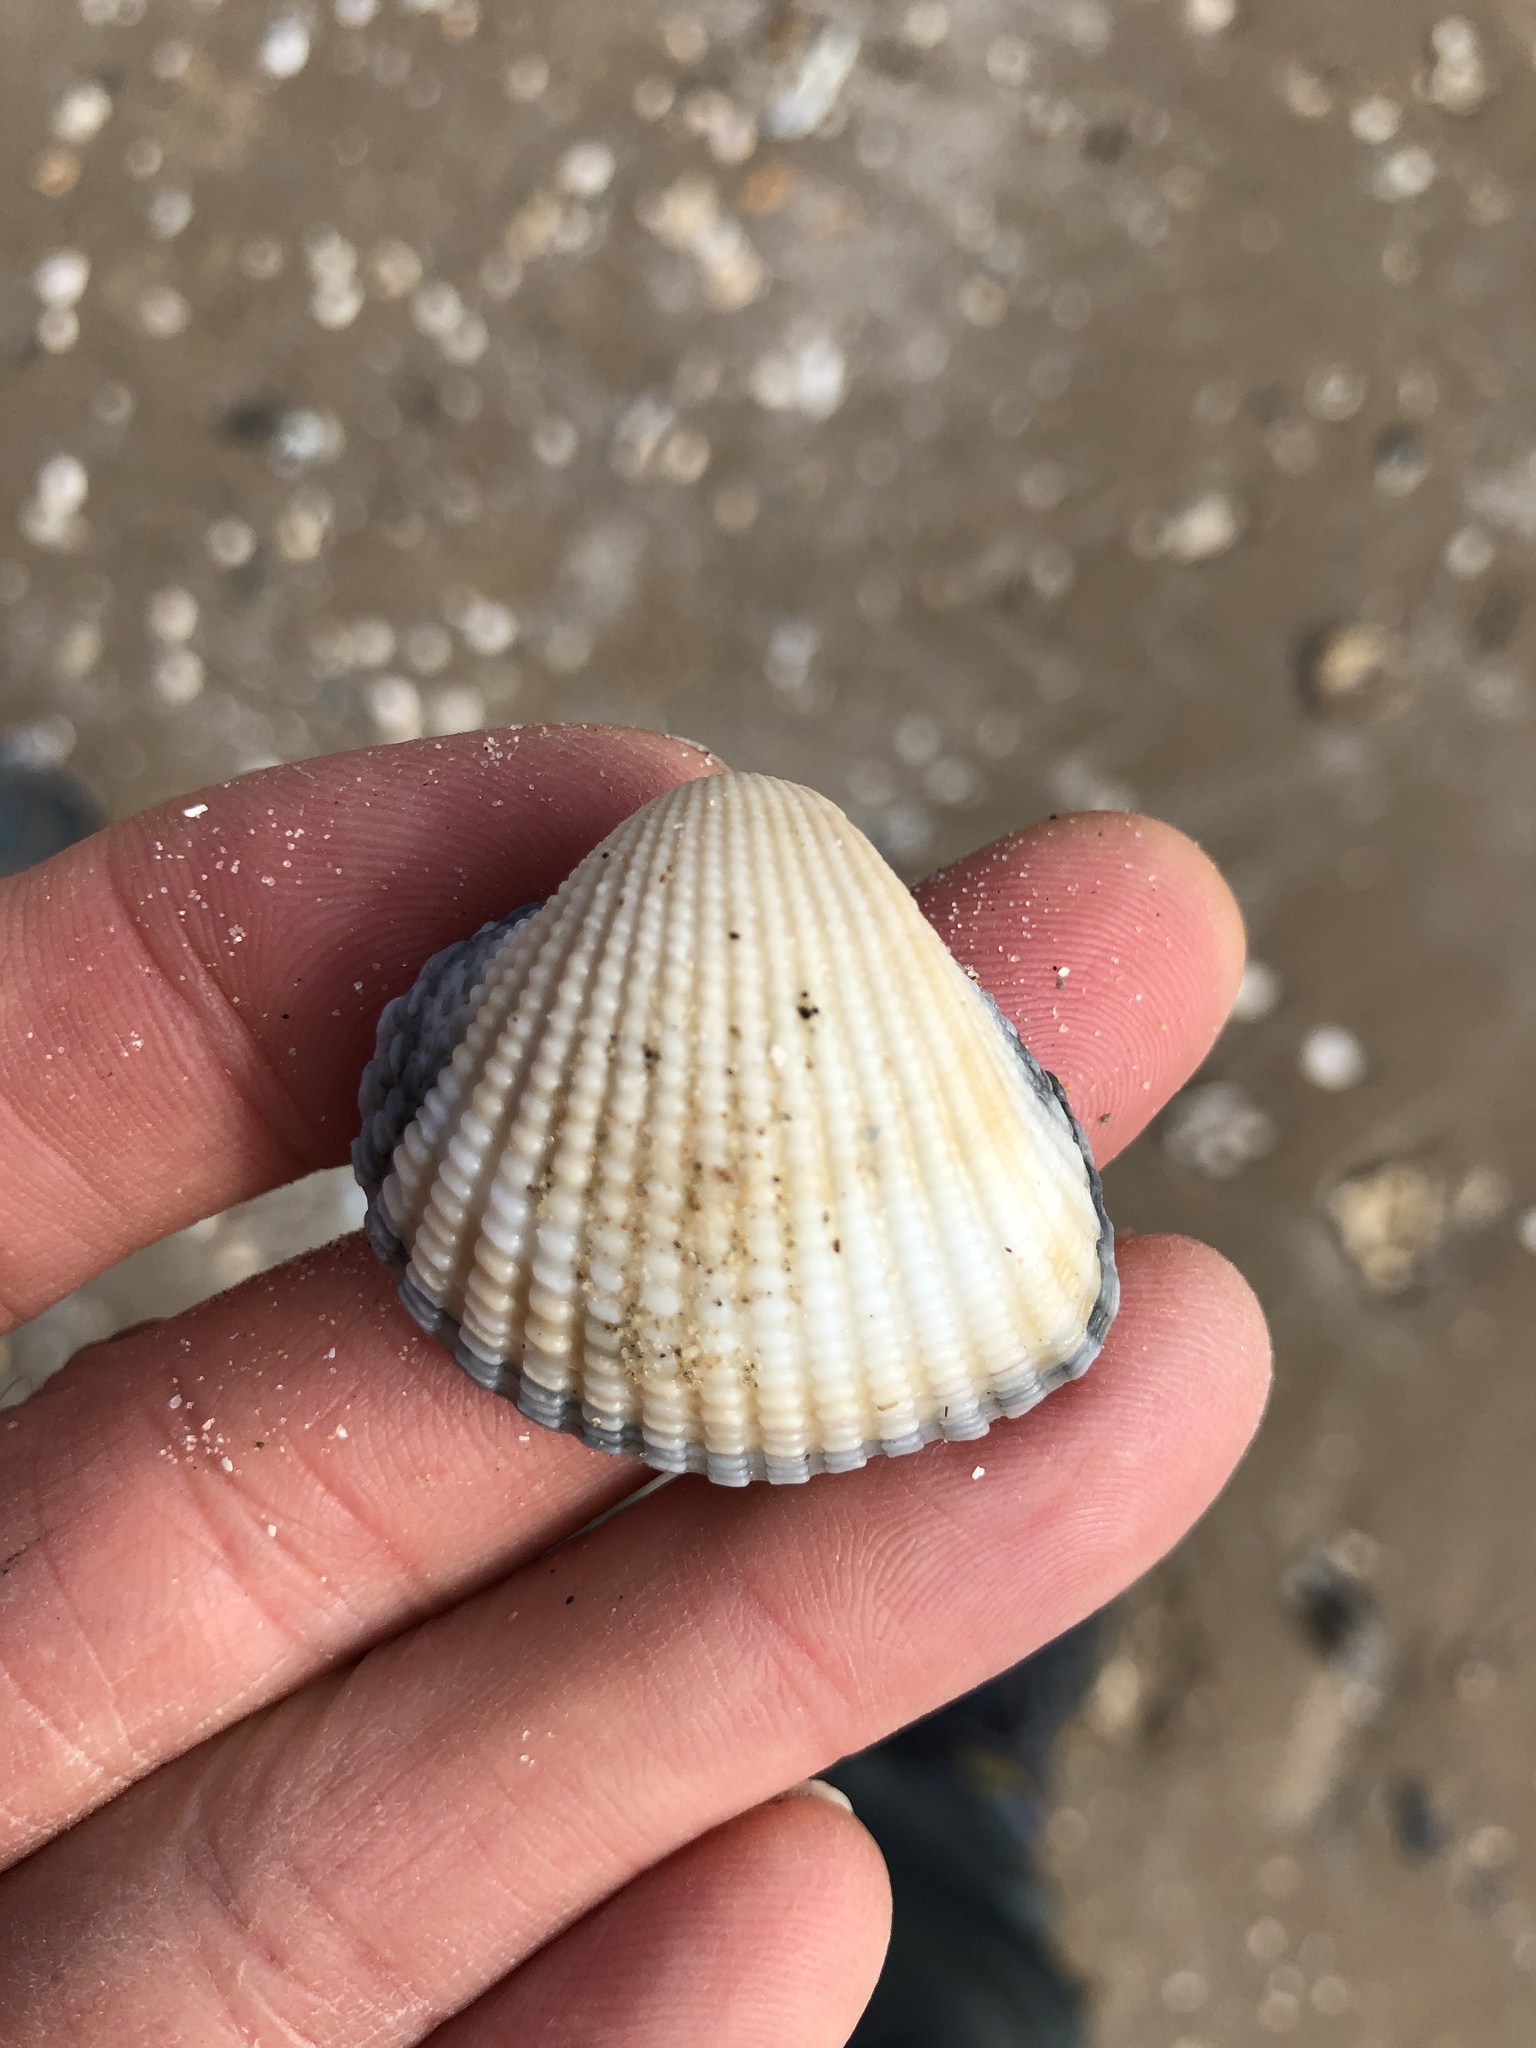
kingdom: Animalia
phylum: Mollusca
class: Bivalvia
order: Arcida
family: Arcidae
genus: Anadara
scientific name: Anadara brasiliana
